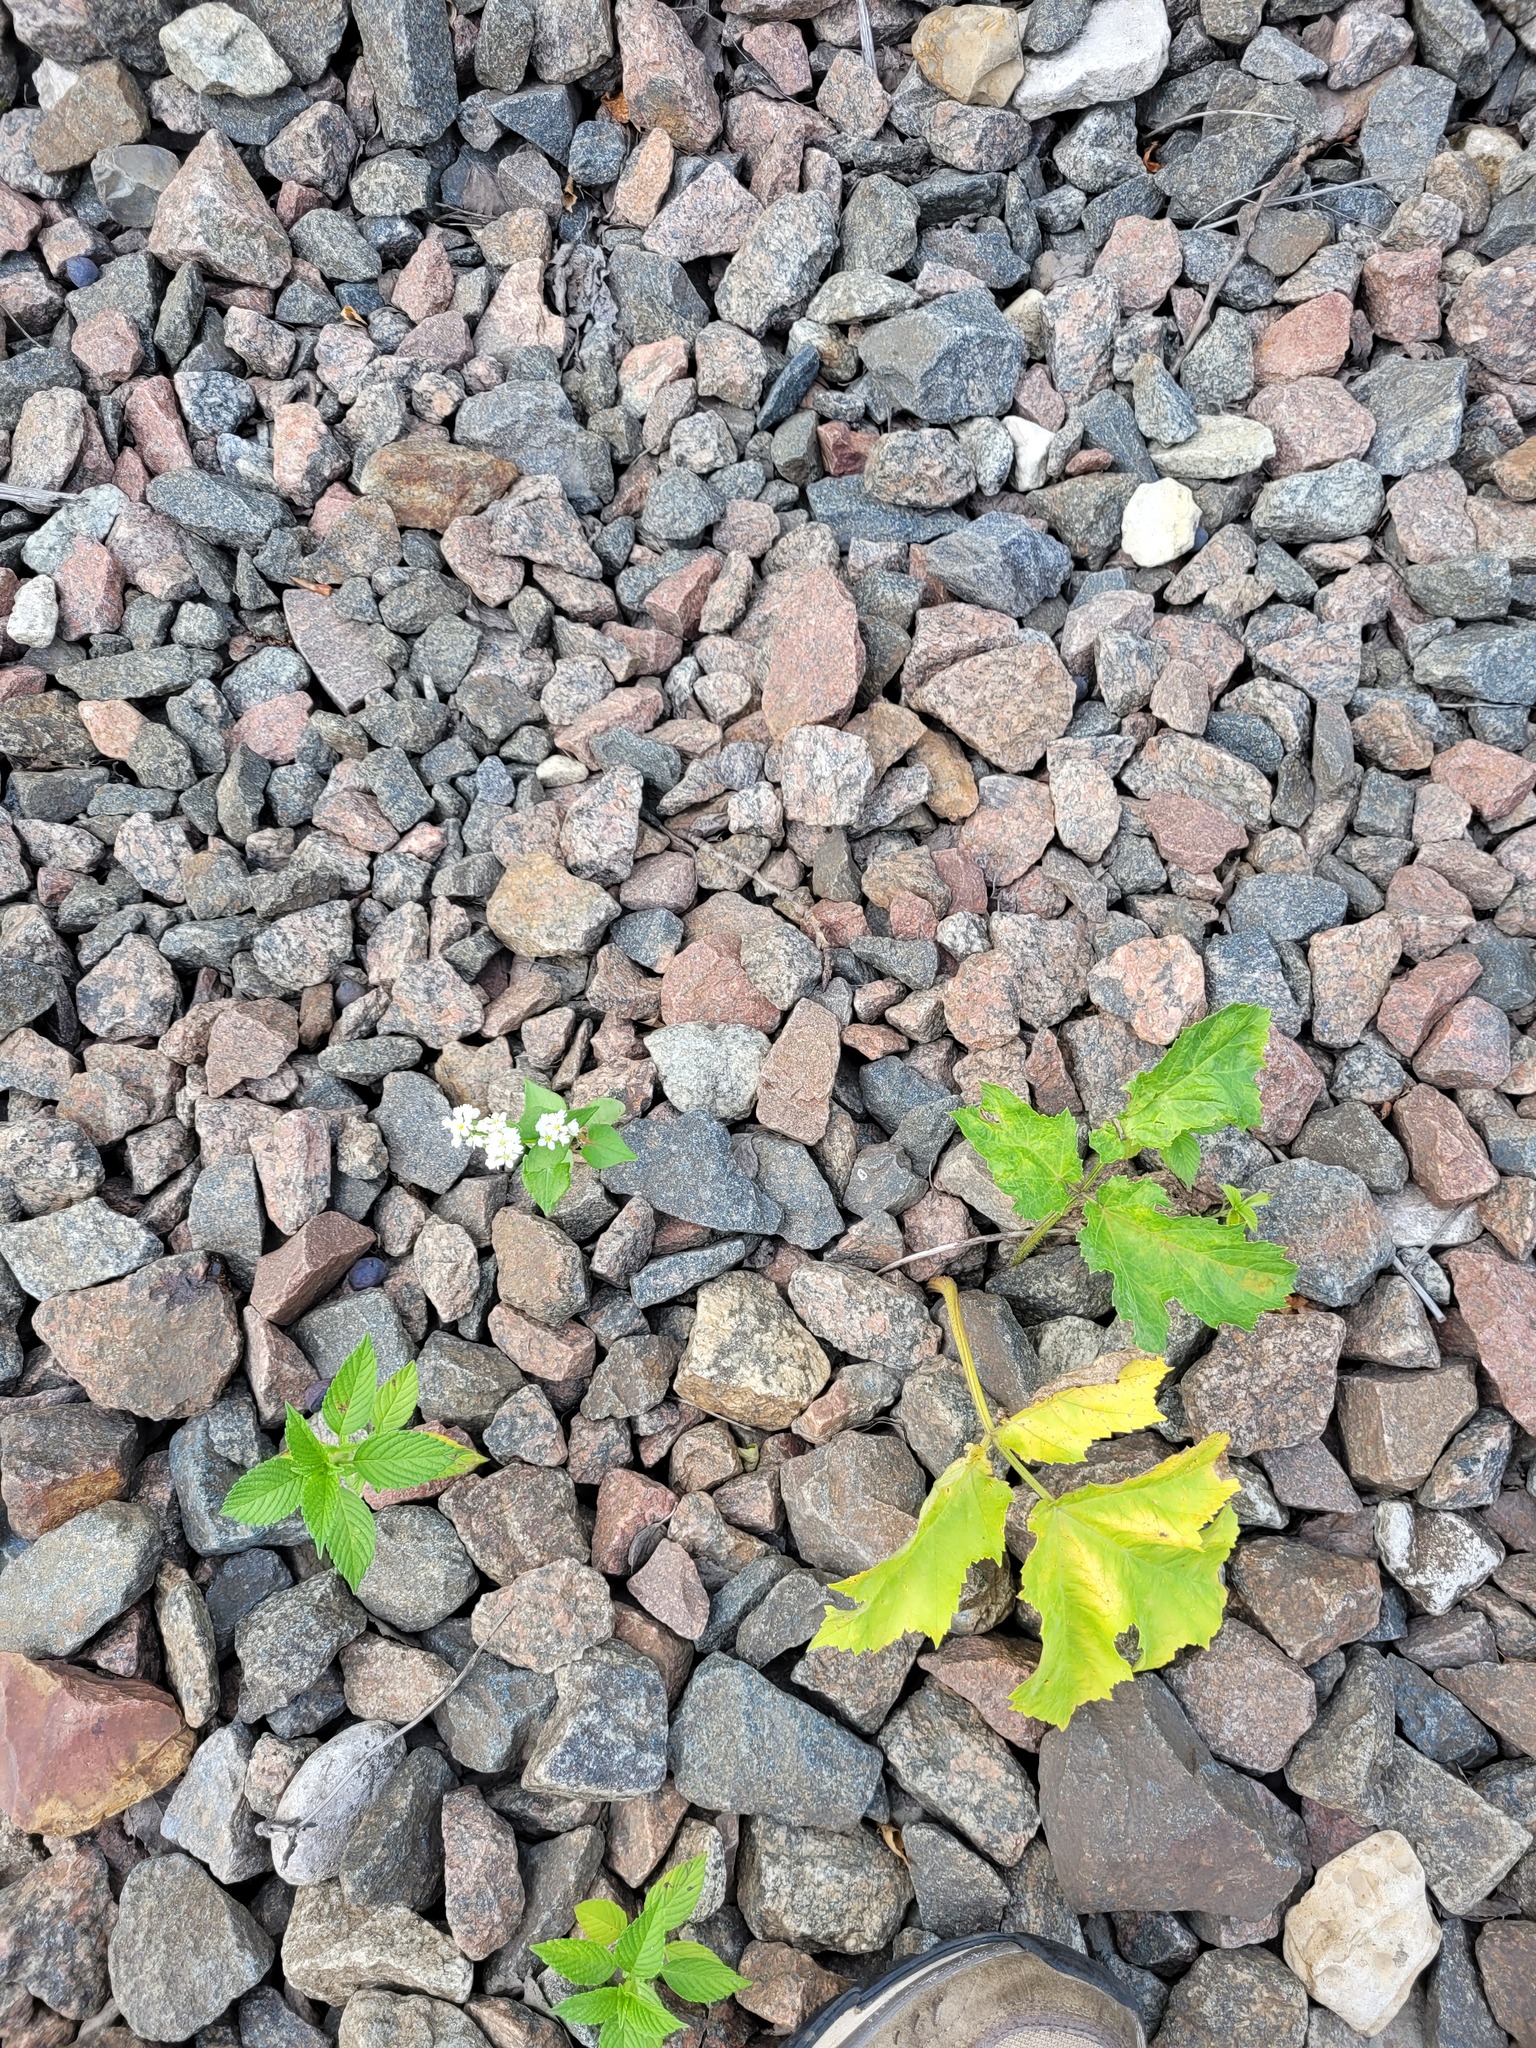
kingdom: Plantae
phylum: Tracheophyta
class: Magnoliopsida
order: Caryophyllales
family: Polygonaceae
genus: Fagopyrum
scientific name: Fagopyrum esculentum
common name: Buckwheat
